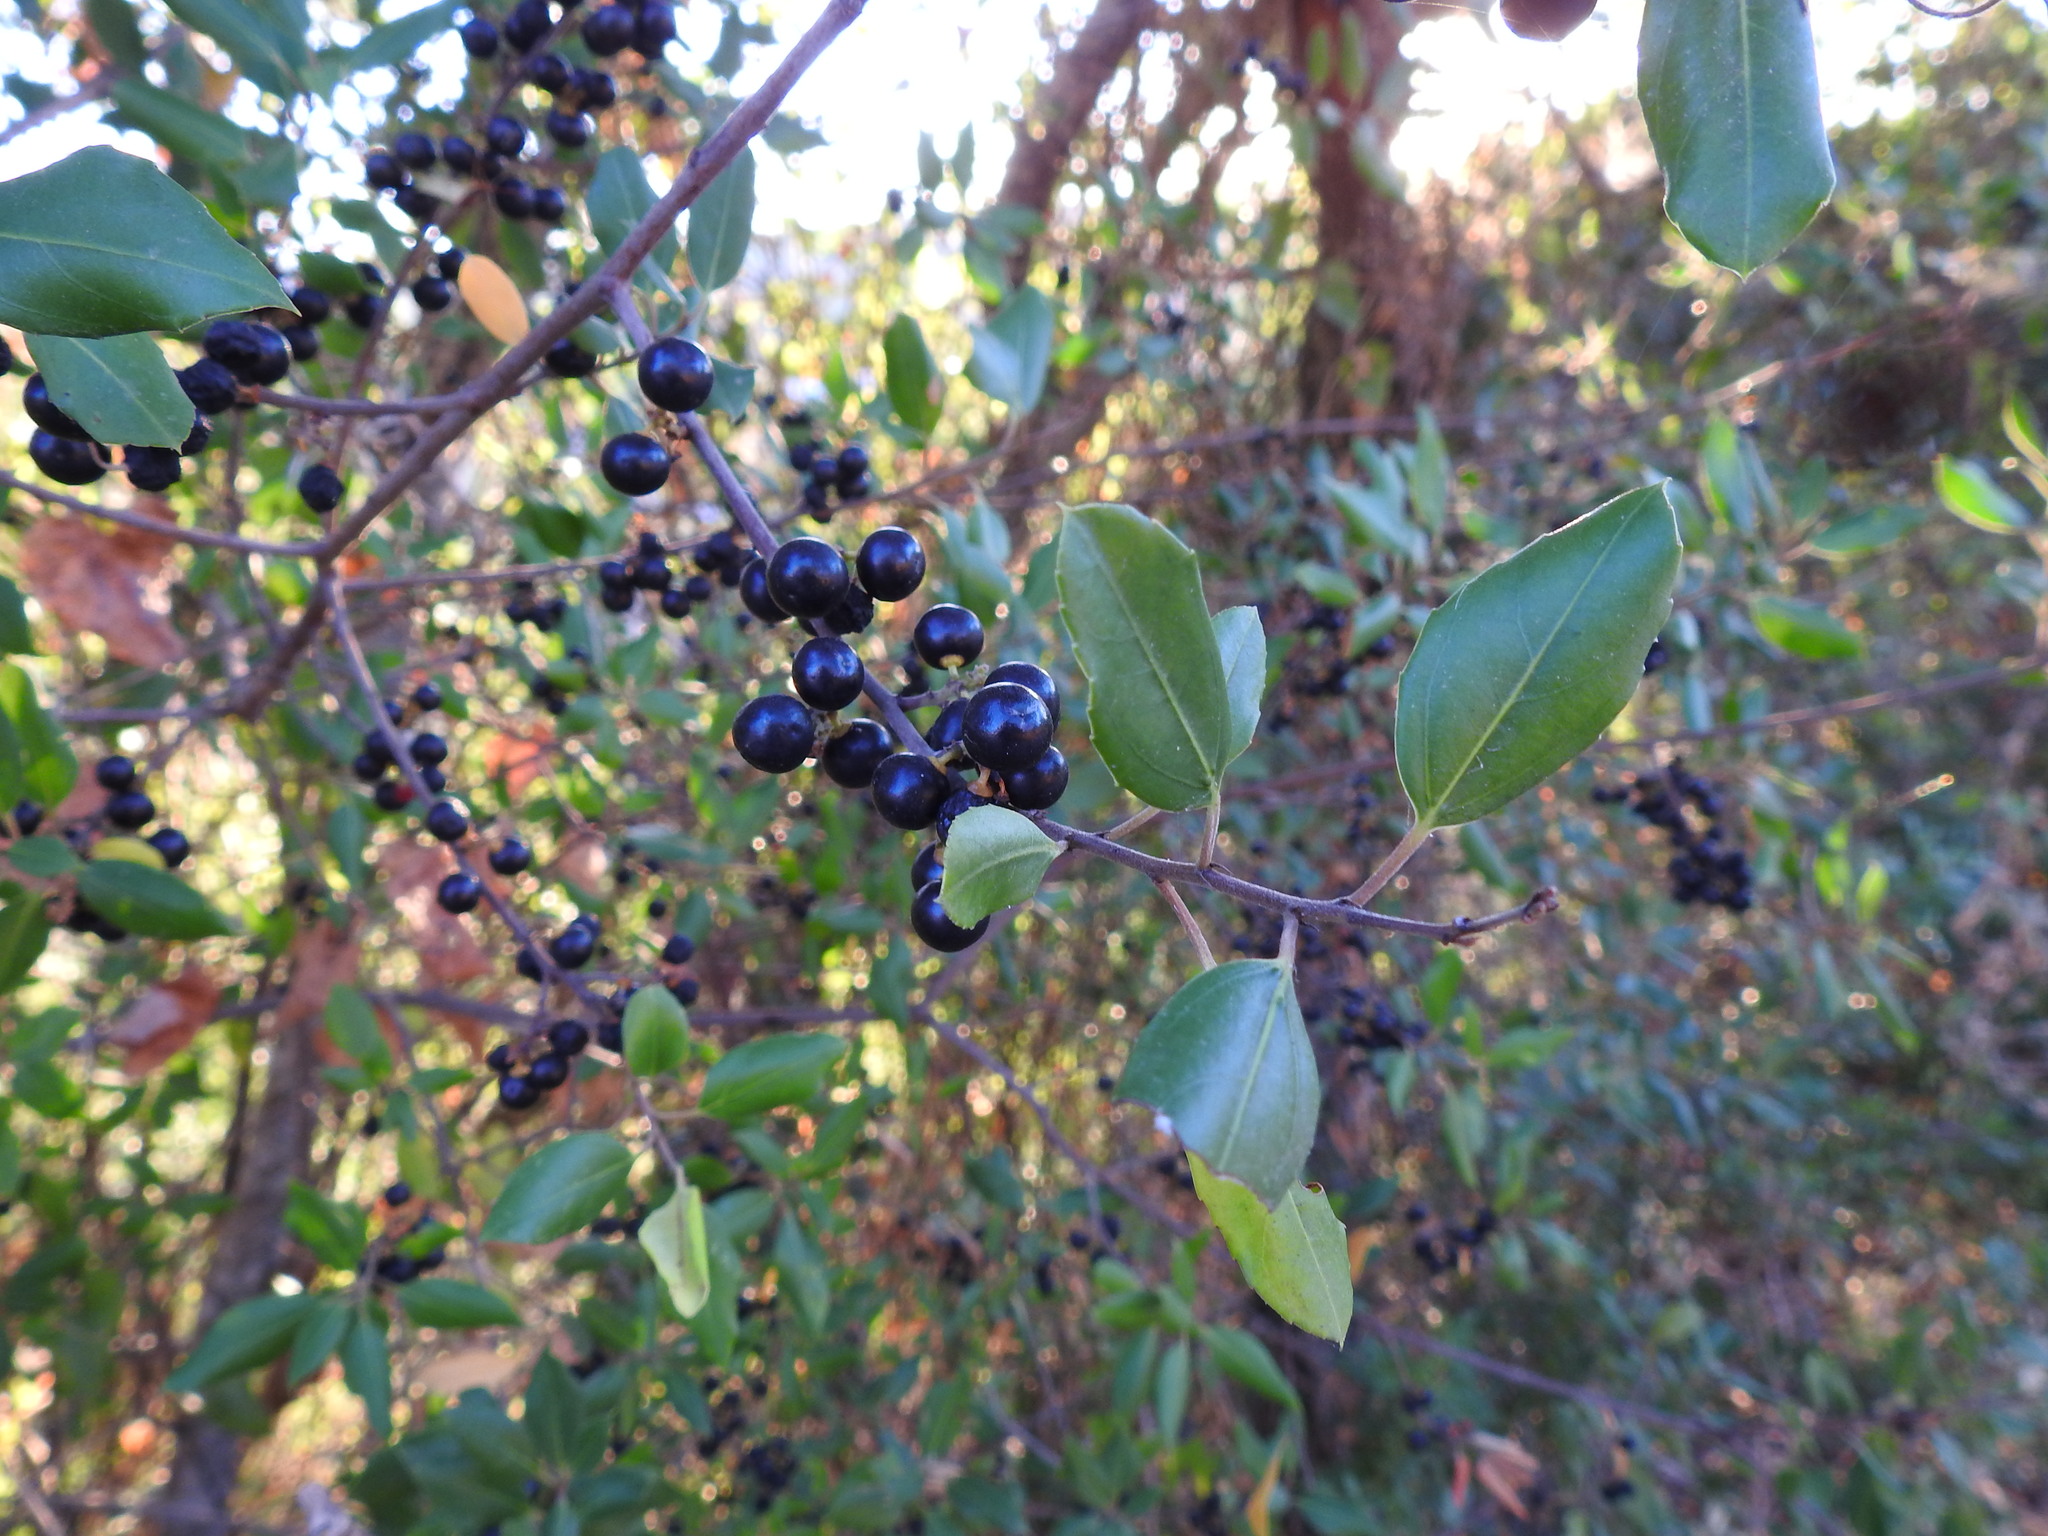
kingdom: Plantae
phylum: Tracheophyta
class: Magnoliopsida
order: Rosales
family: Rhamnaceae
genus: Rhamnus
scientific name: Rhamnus alaternus
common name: Mediterranean buckthorn
